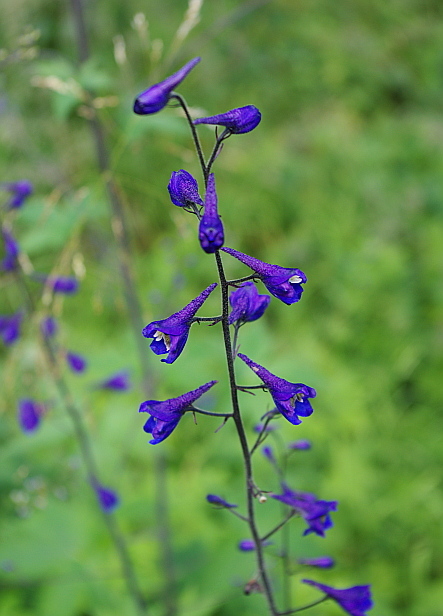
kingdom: Plantae
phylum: Tracheophyta
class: Magnoliopsida
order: Ranunculales
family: Ranunculaceae
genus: Delphinium
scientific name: Delphinium elatum
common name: Candle larkspur
